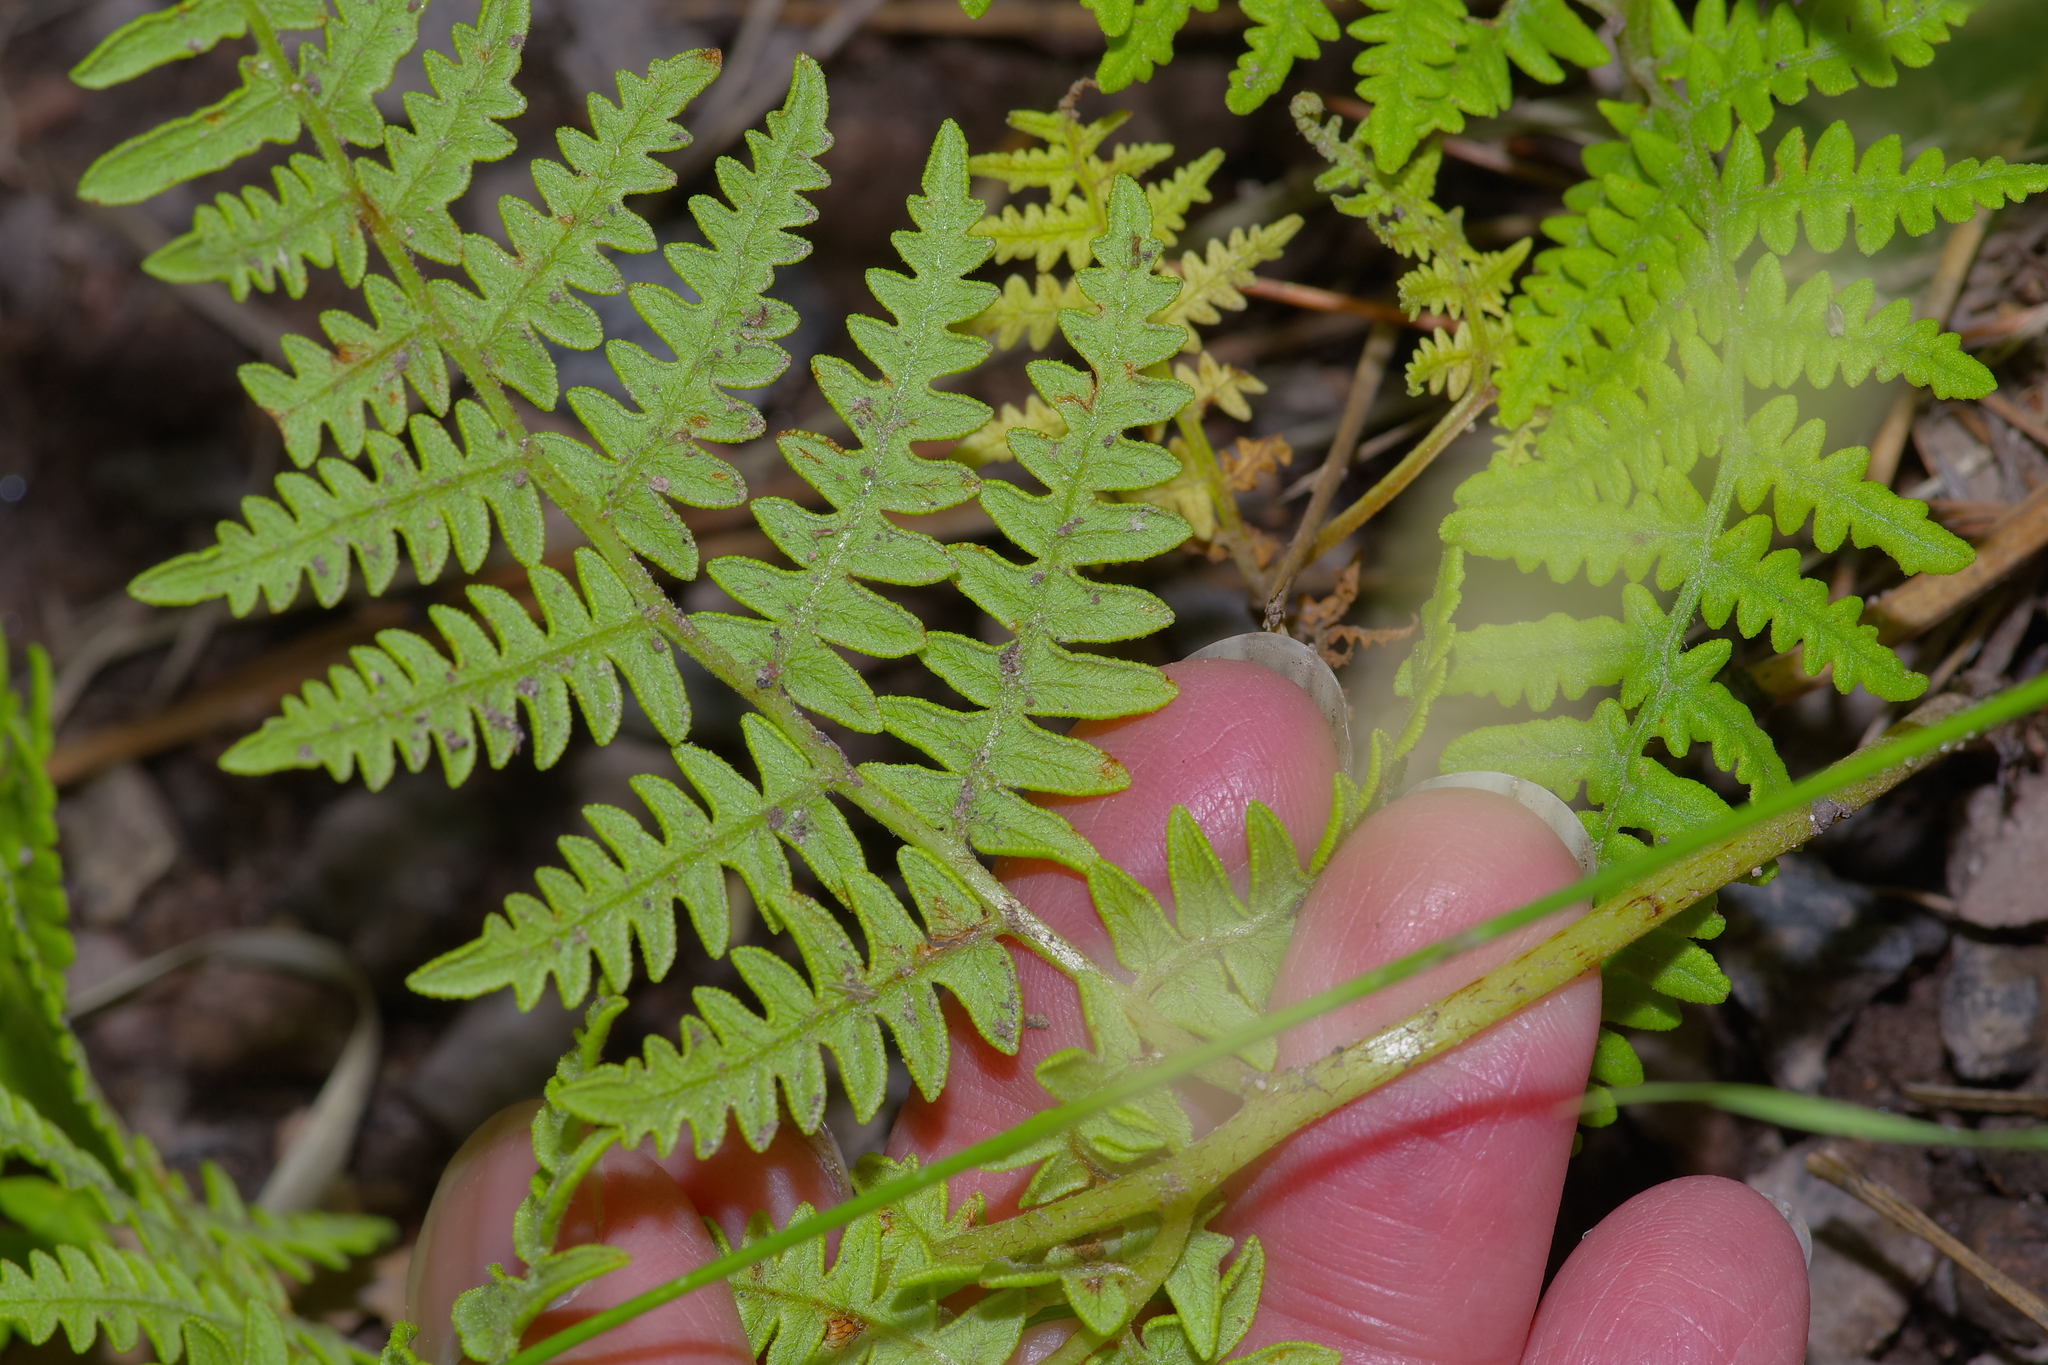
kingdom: Plantae
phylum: Tracheophyta
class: Polypodiopsida
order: Polypodiales
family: Dennstaedtiaceae
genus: Pteridium
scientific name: Pteridium aquilinum
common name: Bracken
